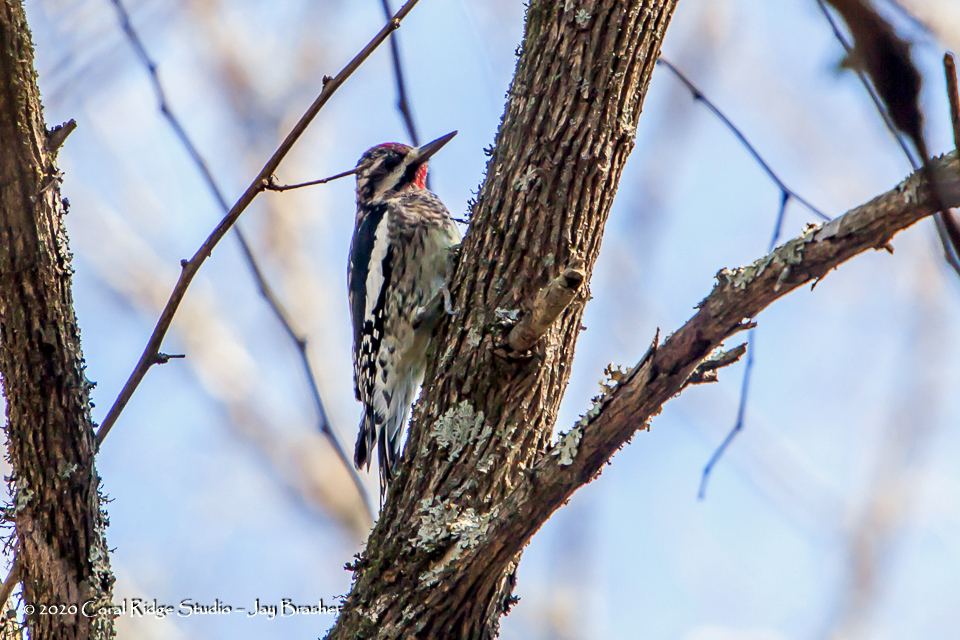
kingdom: Animalia
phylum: Chordata
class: Aves
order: Piciformes
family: Picidae
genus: Sphyrapicus
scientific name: Sphyrapicus varius
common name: Yellow-bellied sapsucker
